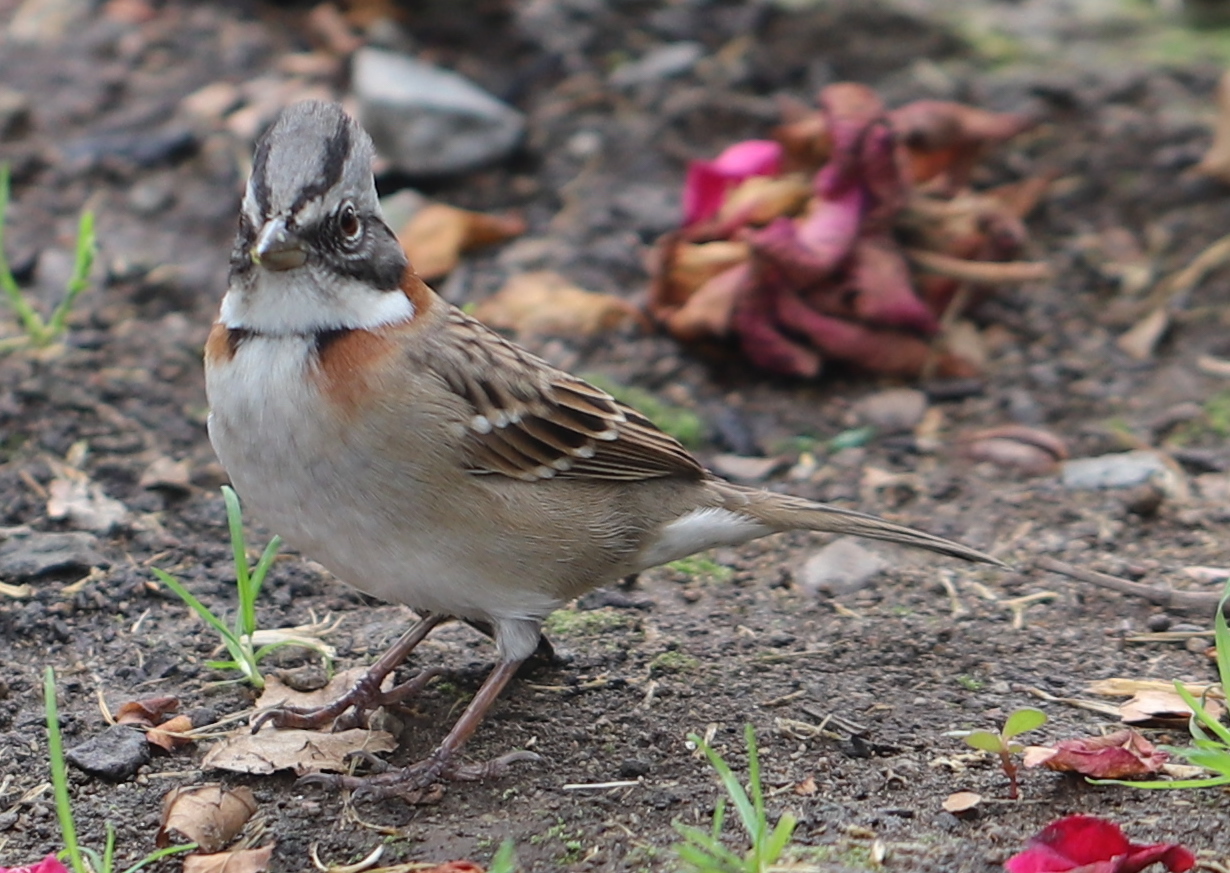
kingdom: Animalia
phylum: Chordata
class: Aves
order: Passeriformes
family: Passerellidae
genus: Zonotrichia
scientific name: Zonotrichia capensis
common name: Rufous-collared sparrow
